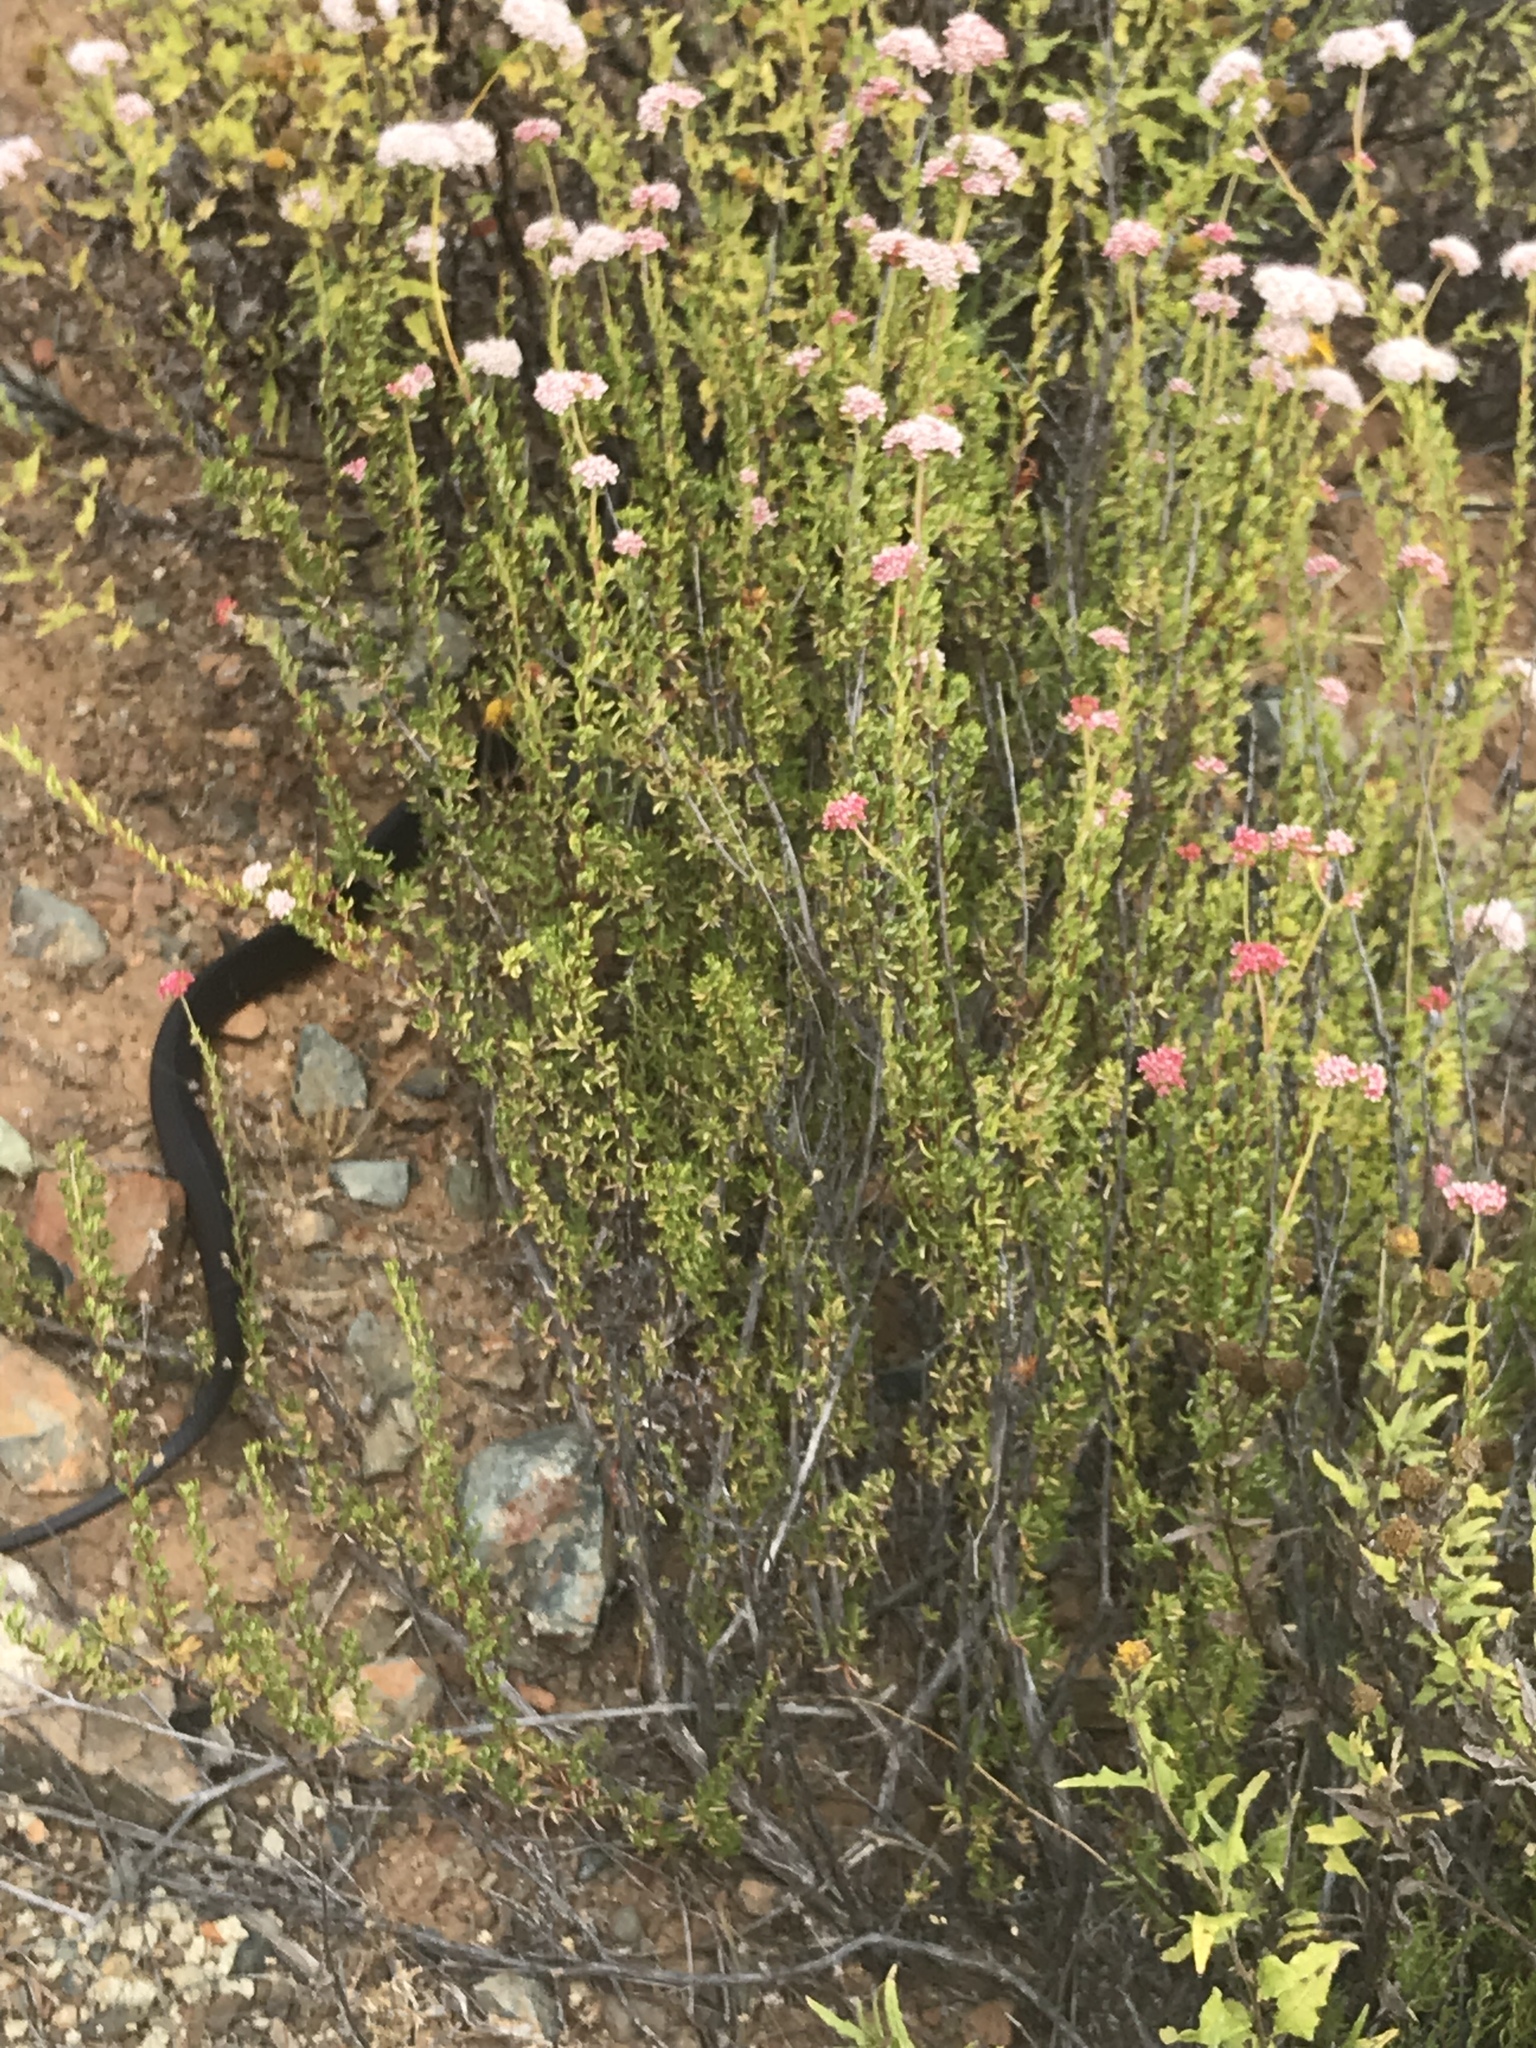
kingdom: Animalia
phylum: Chordata
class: Squamata
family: Colubridae
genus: Masticophis
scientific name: Masticophis fuliginosus
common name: Baja california coachwhip
